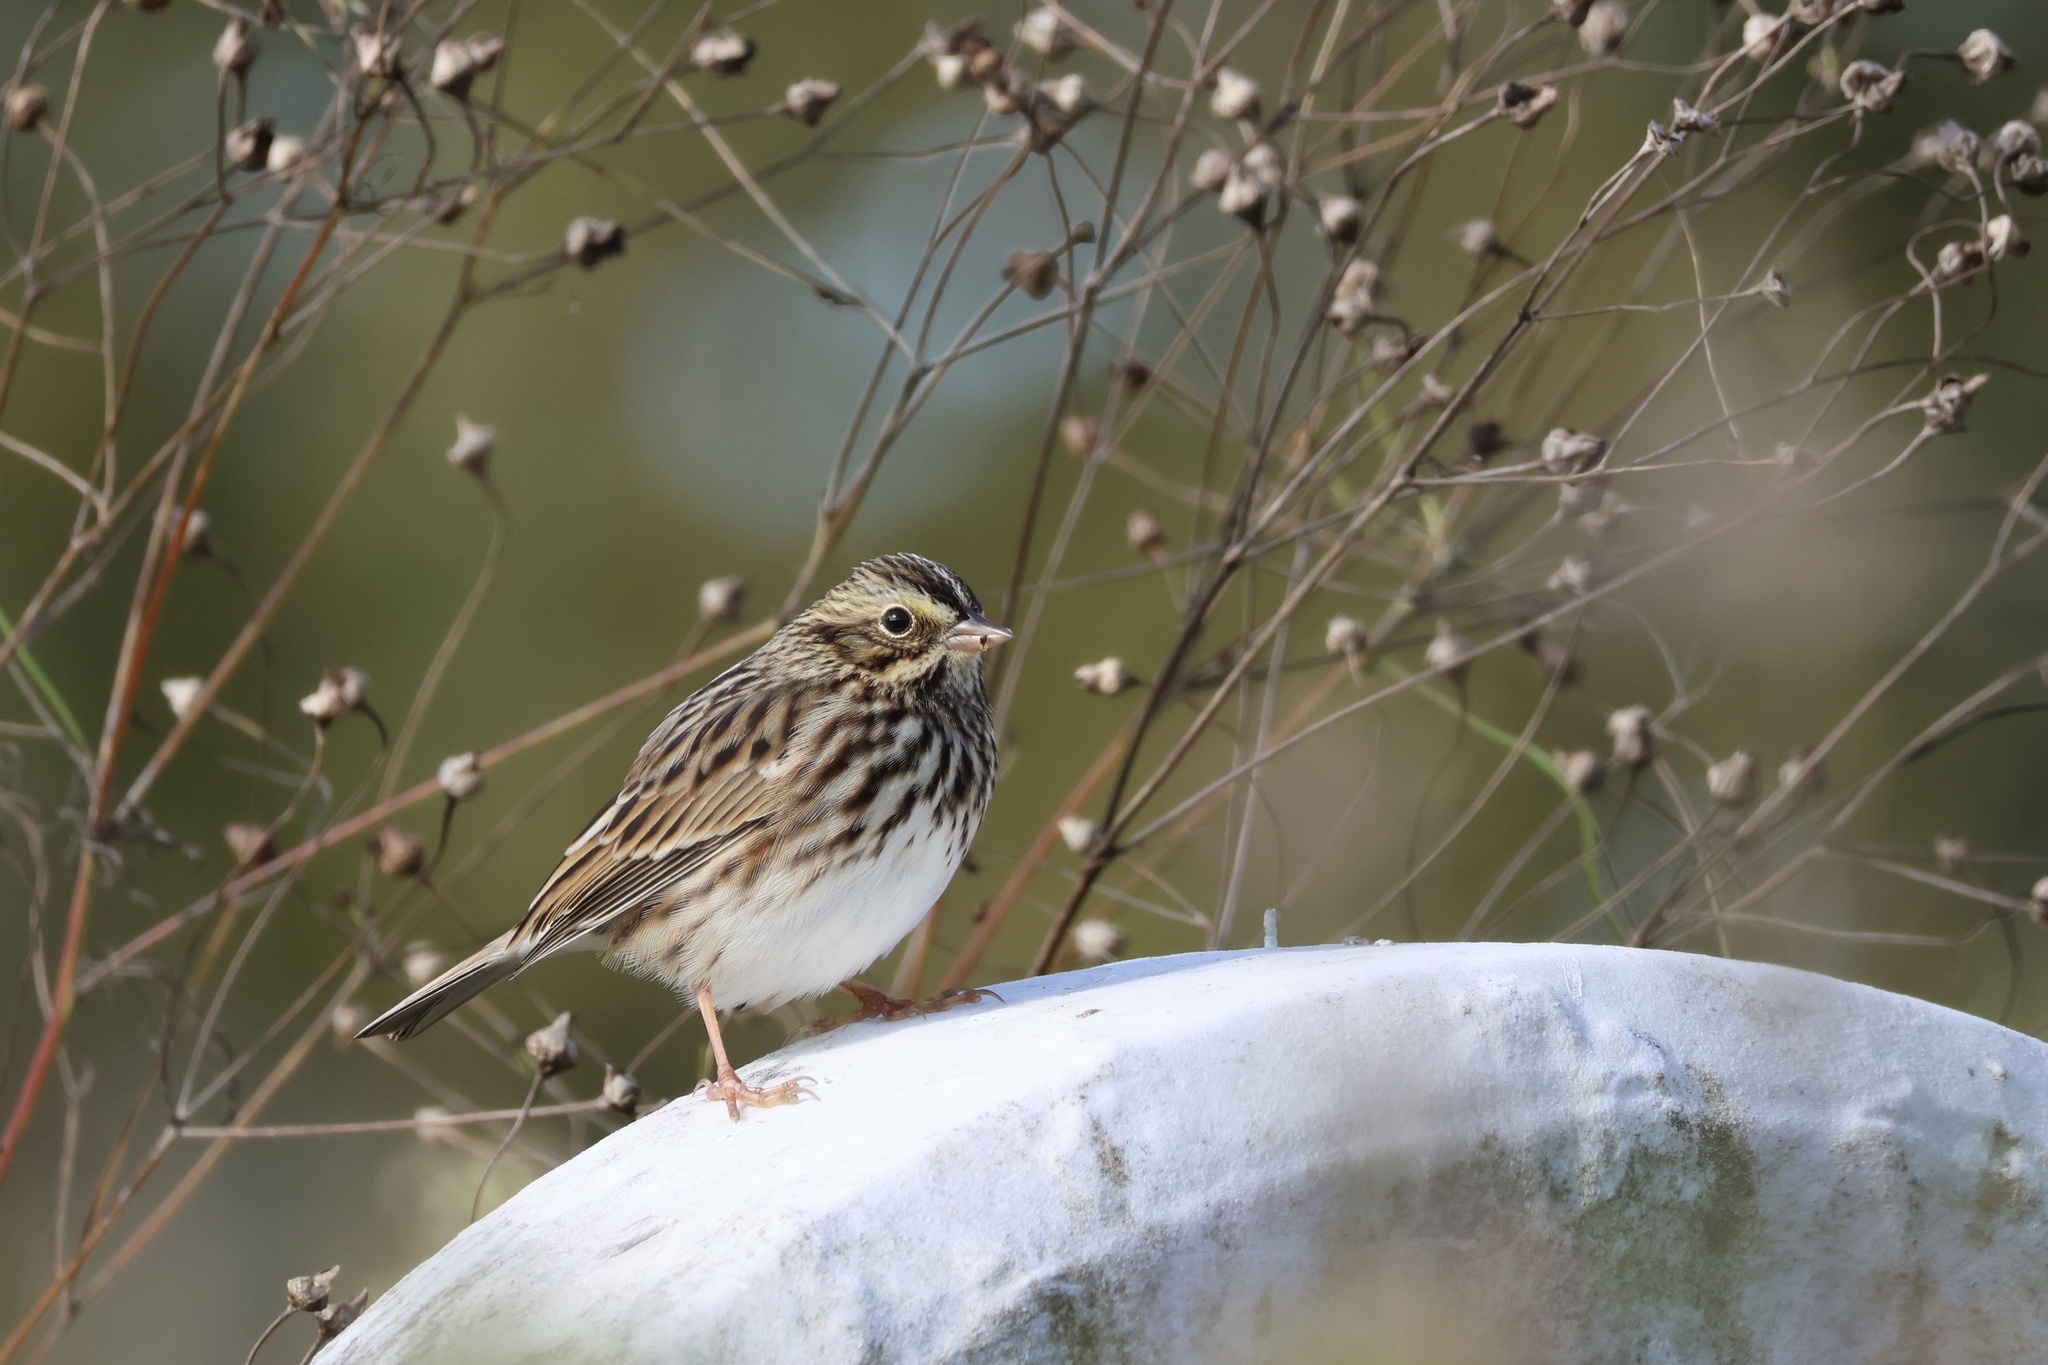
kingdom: Animalia
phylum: Chordata
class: Aves
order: Passeriformes
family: Passerellidae
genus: Passerculus
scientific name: Passerculus sandwichensis
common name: Savannah sparrow
